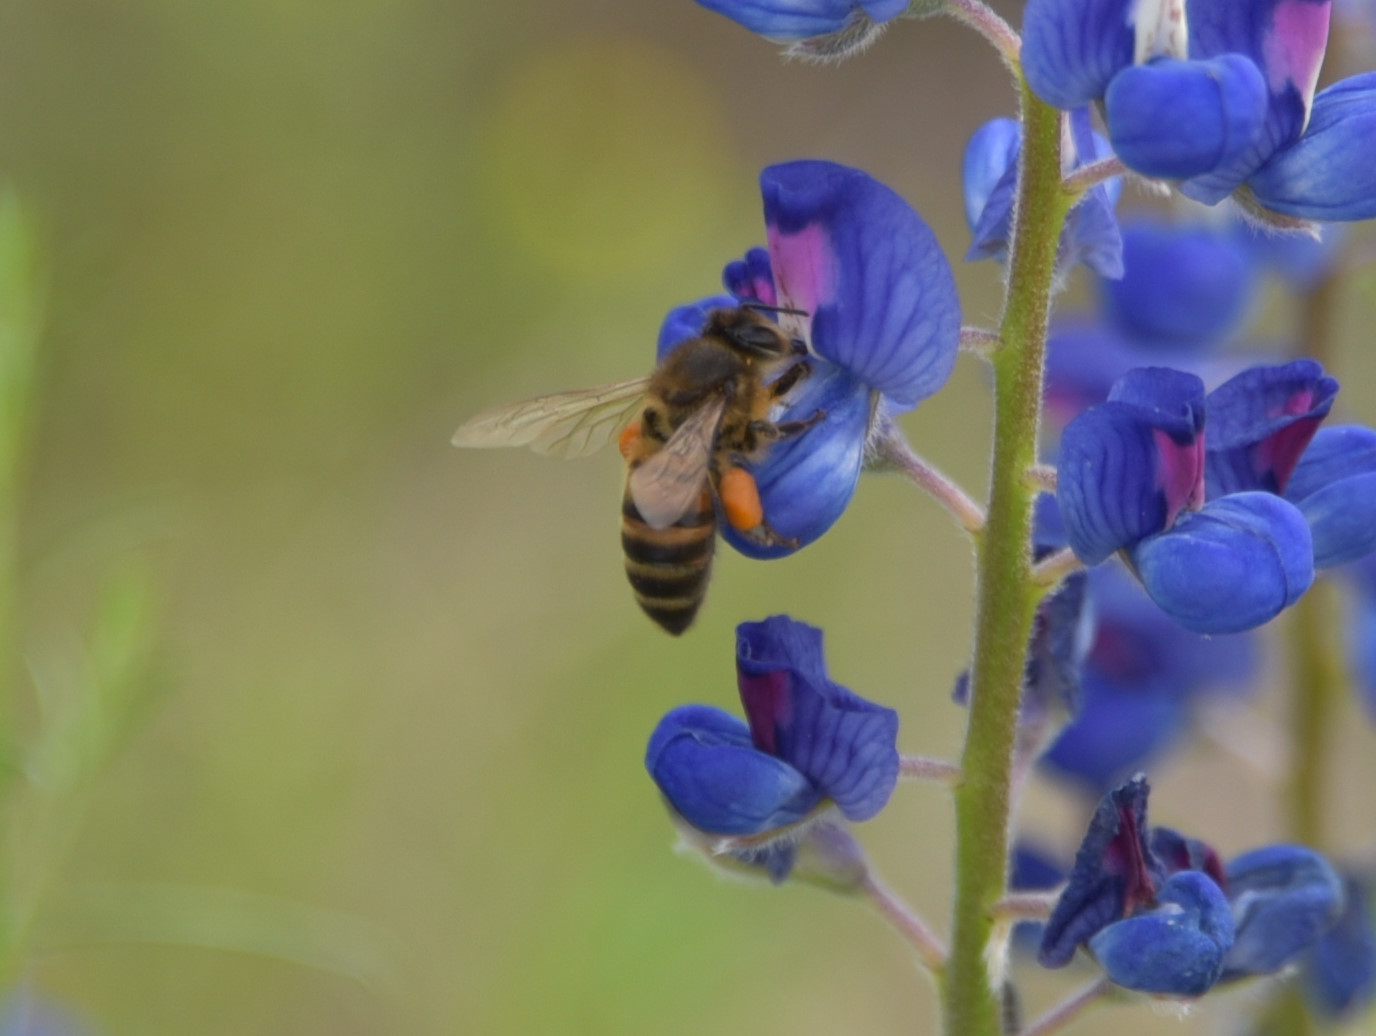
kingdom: Animalia
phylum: Arthropoda
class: Insecta
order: Hymenoptera
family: Apidae
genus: Apis
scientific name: Apis mellifera
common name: Honey bee
